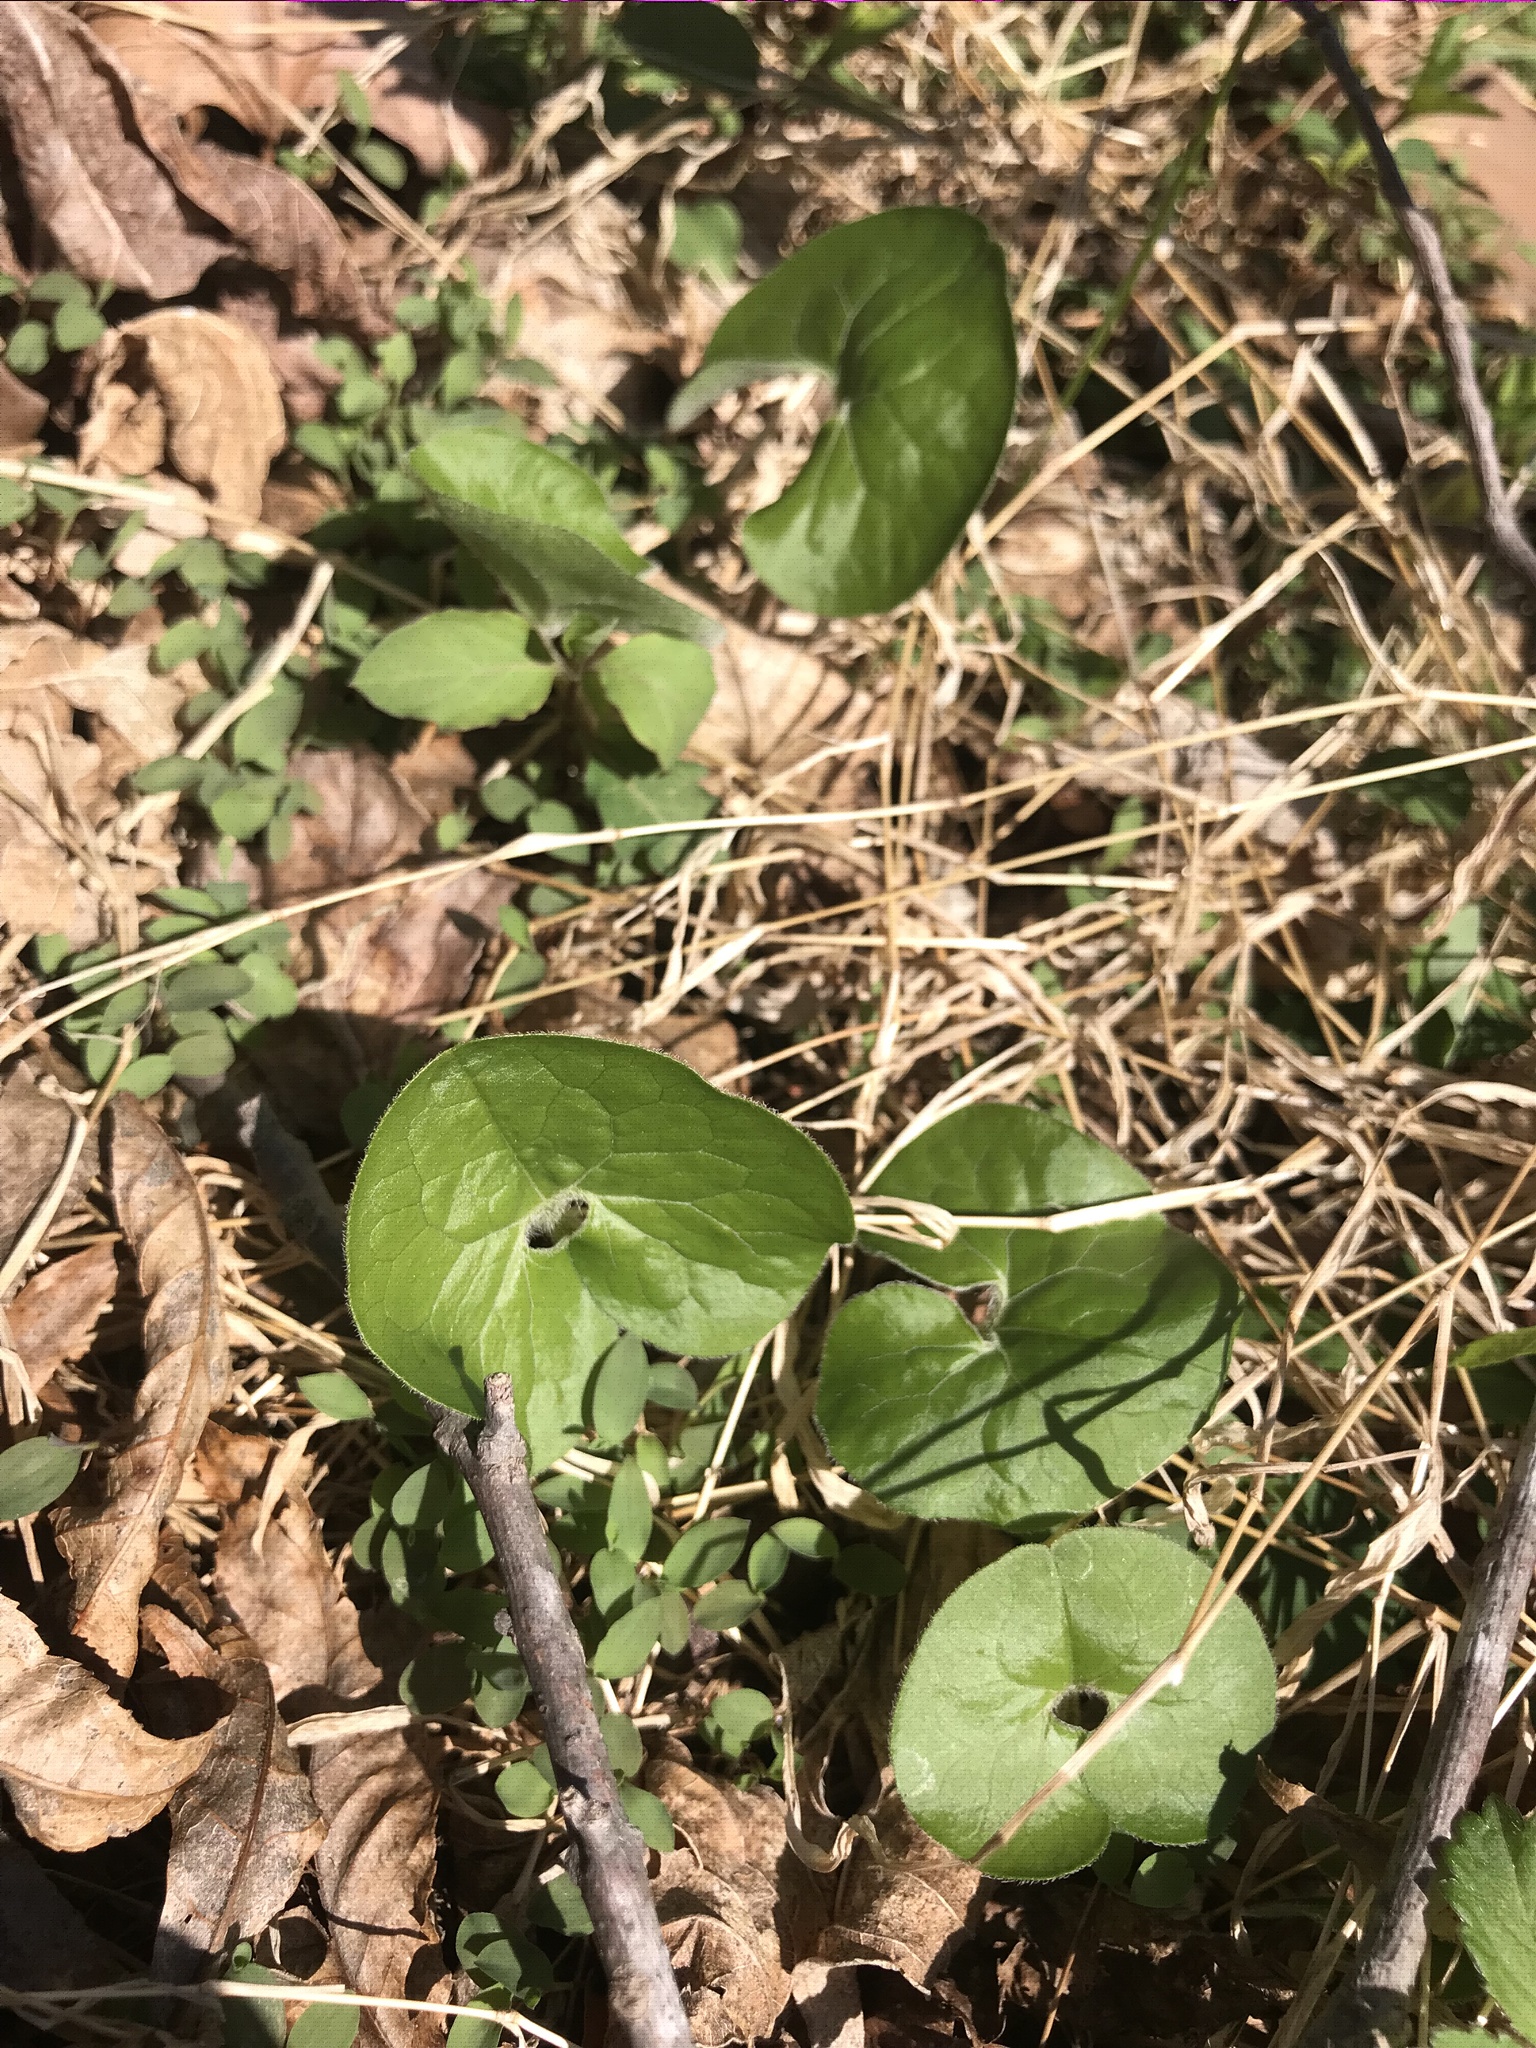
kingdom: Plantae
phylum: Tracheophyta
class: Magnoliopsida
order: Piperales
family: Aristolochiaceae
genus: Asarum
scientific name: Asarum canadense
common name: Wild ginger
